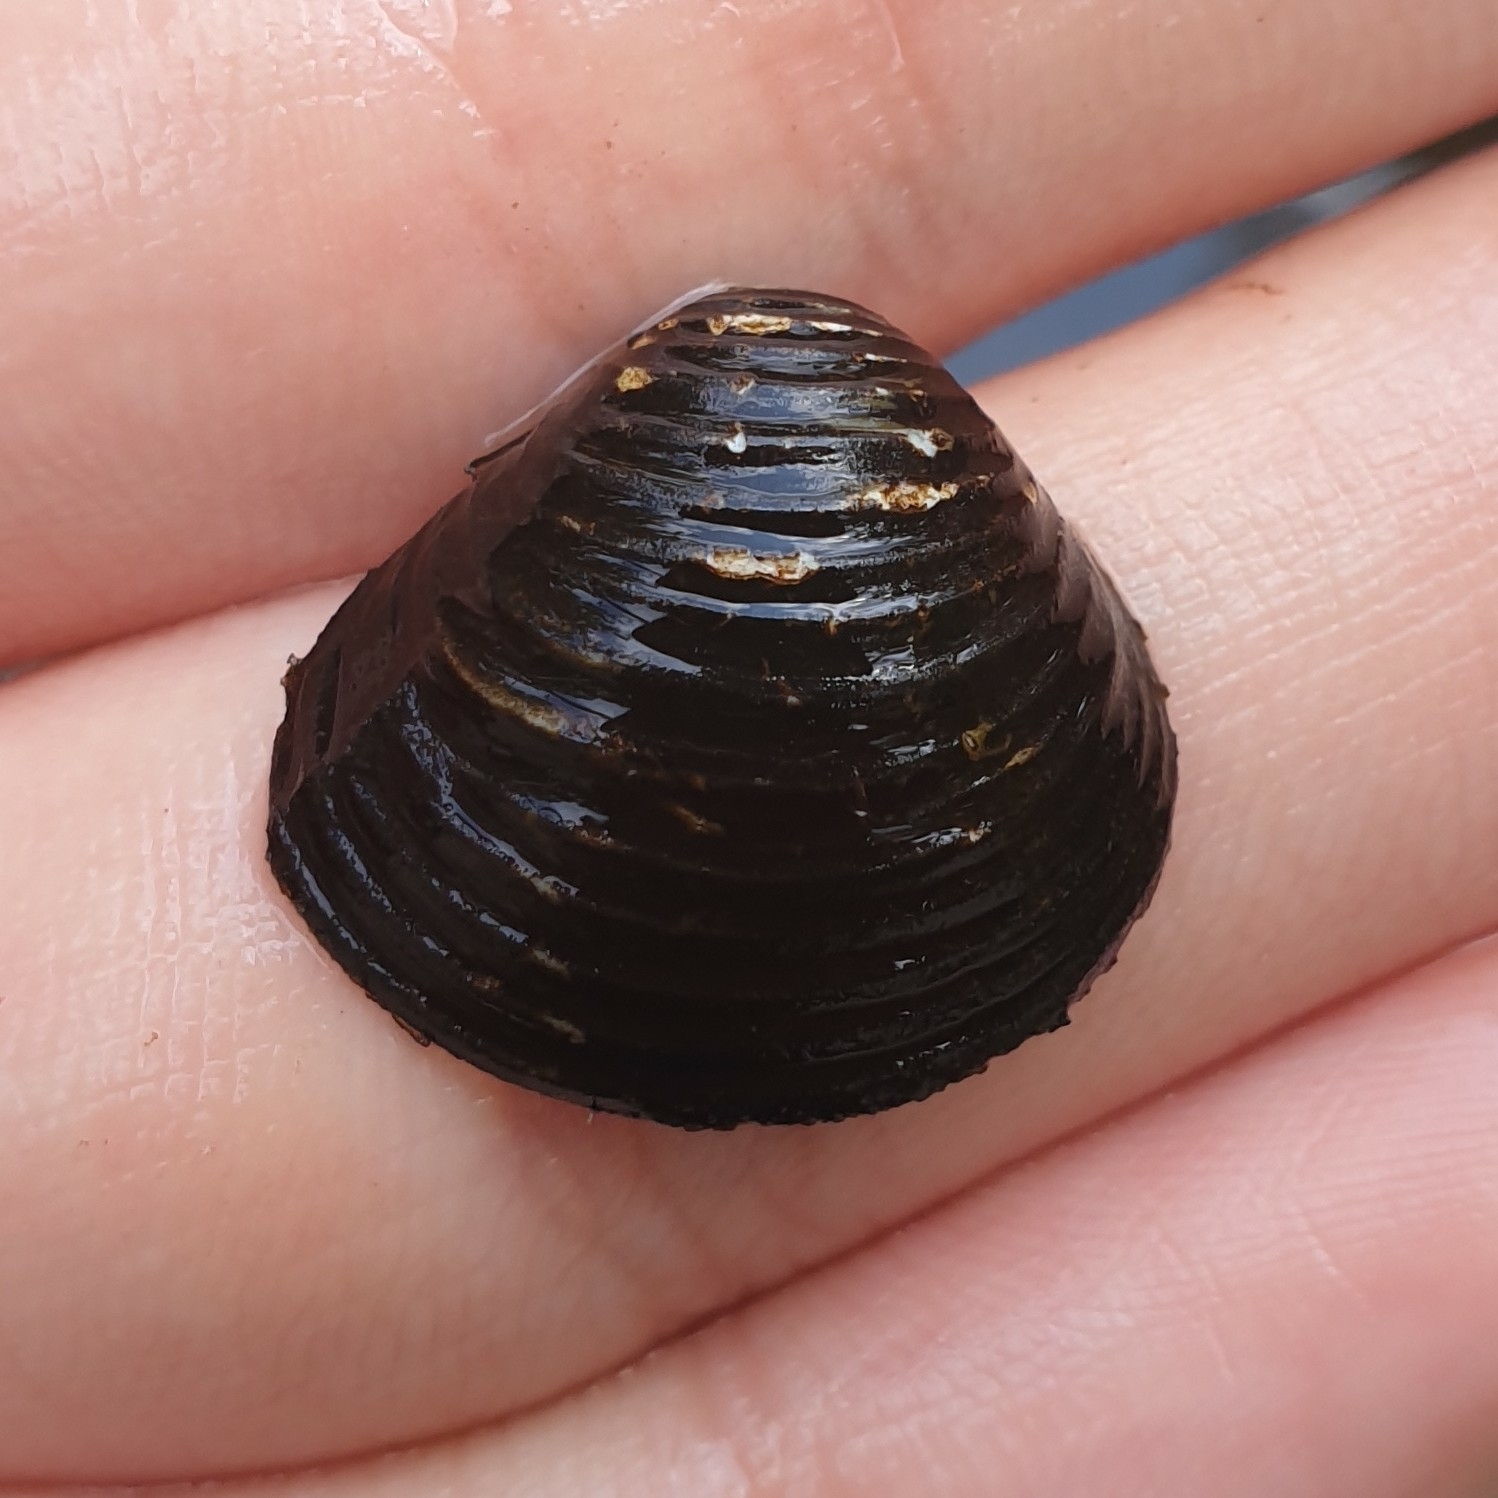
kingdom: Animalia
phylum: Mollusca
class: Bivalvia
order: Venerida
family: Cyrenidae
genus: Corbicula
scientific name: Corbicula fluminea
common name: Asian clam
